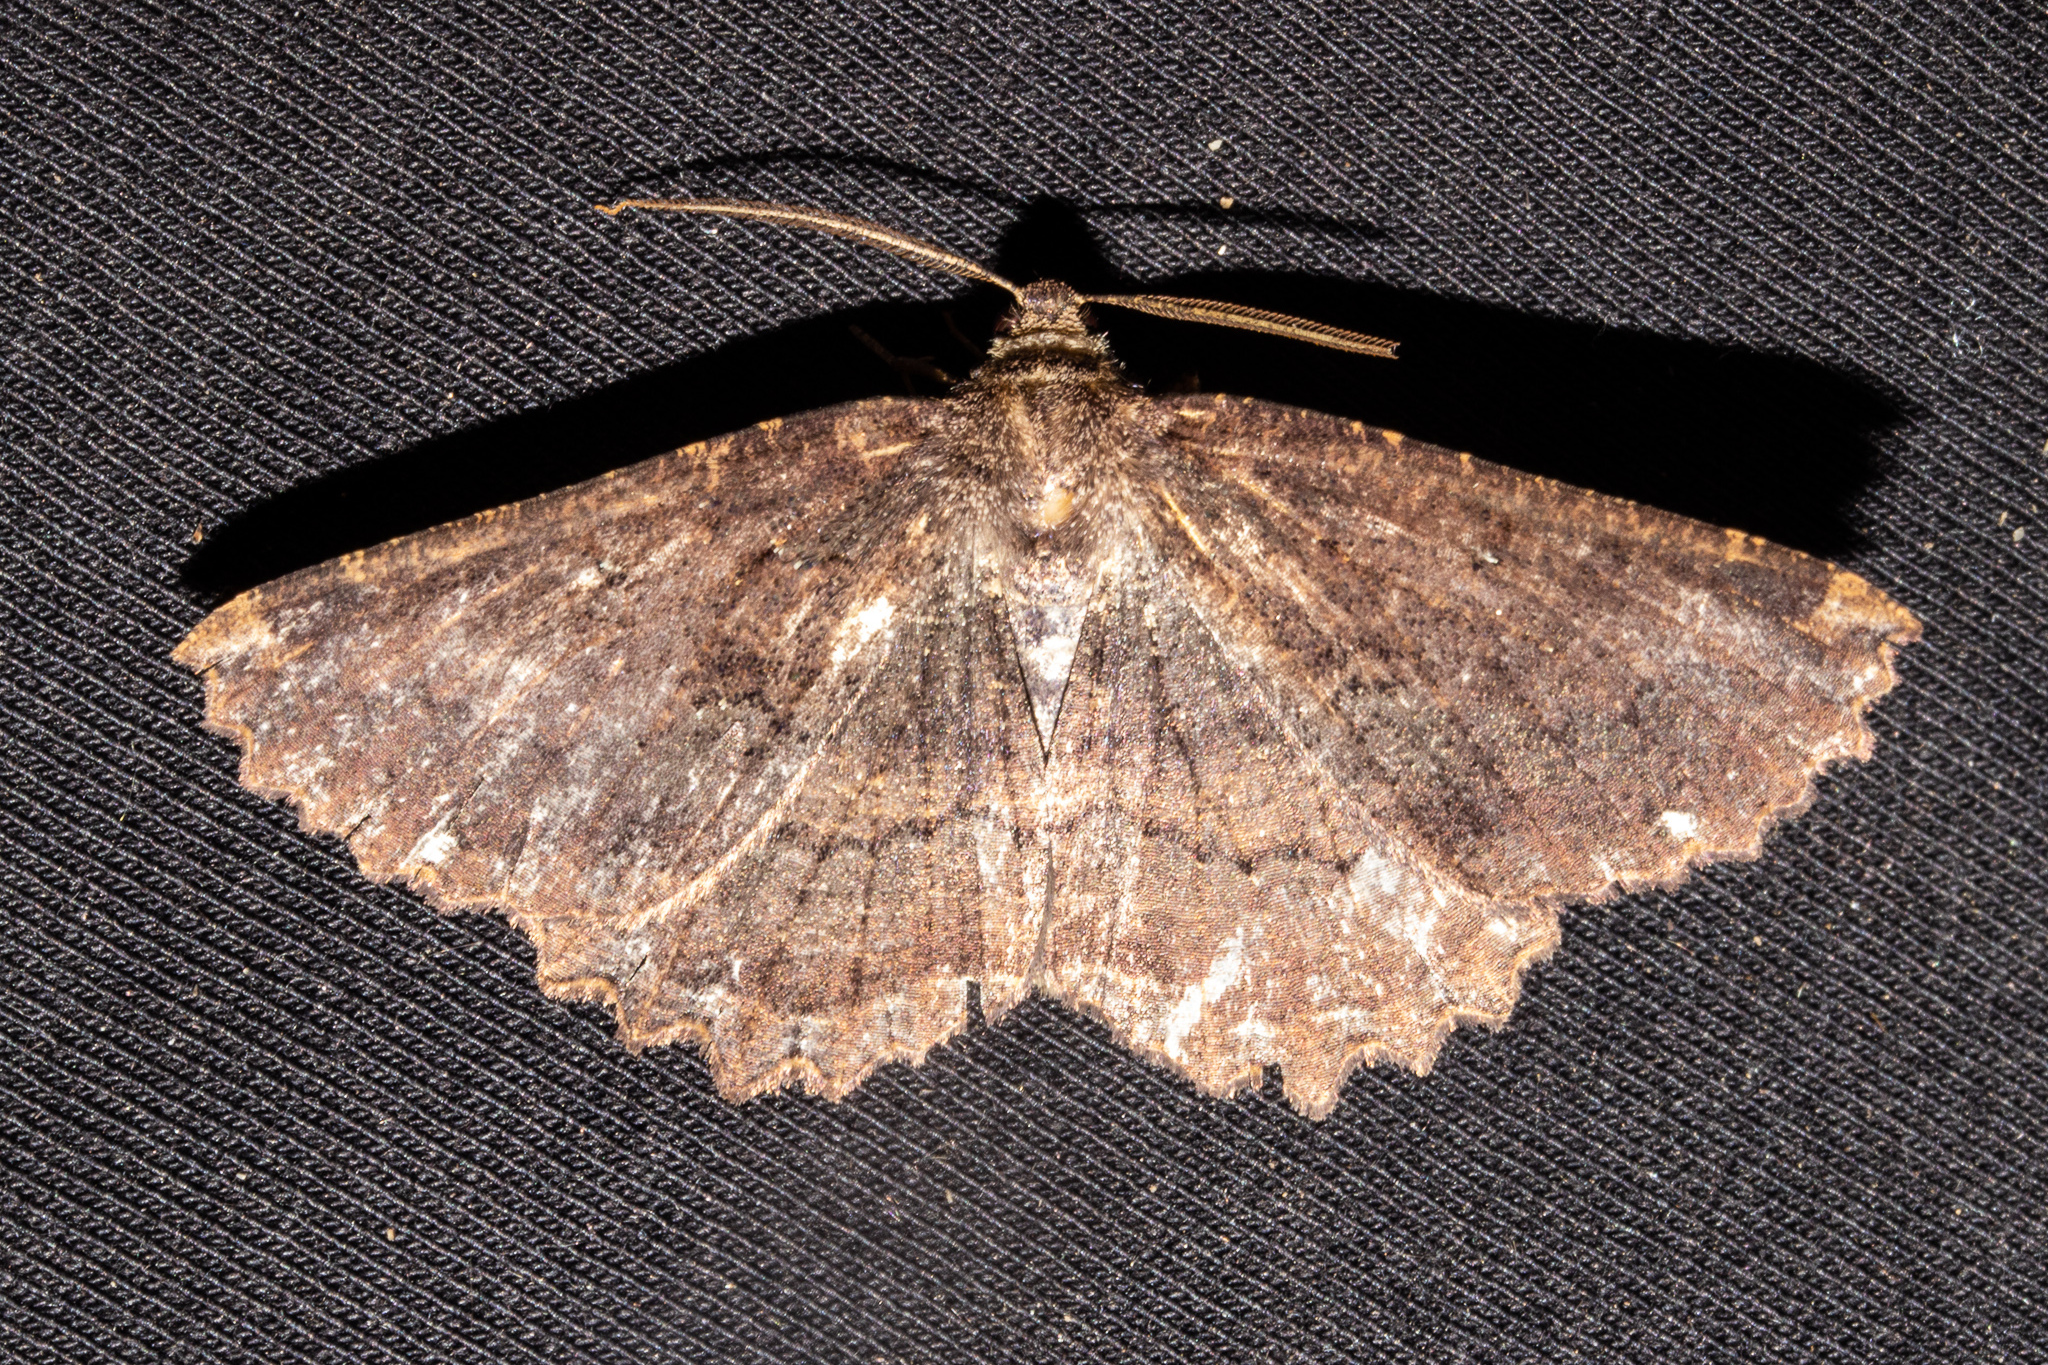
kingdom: Animalia
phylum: Arthropoda
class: Insecta
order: Lepidoptera
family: Geometridae
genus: Gellonia
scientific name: Gellonia dejectaria
